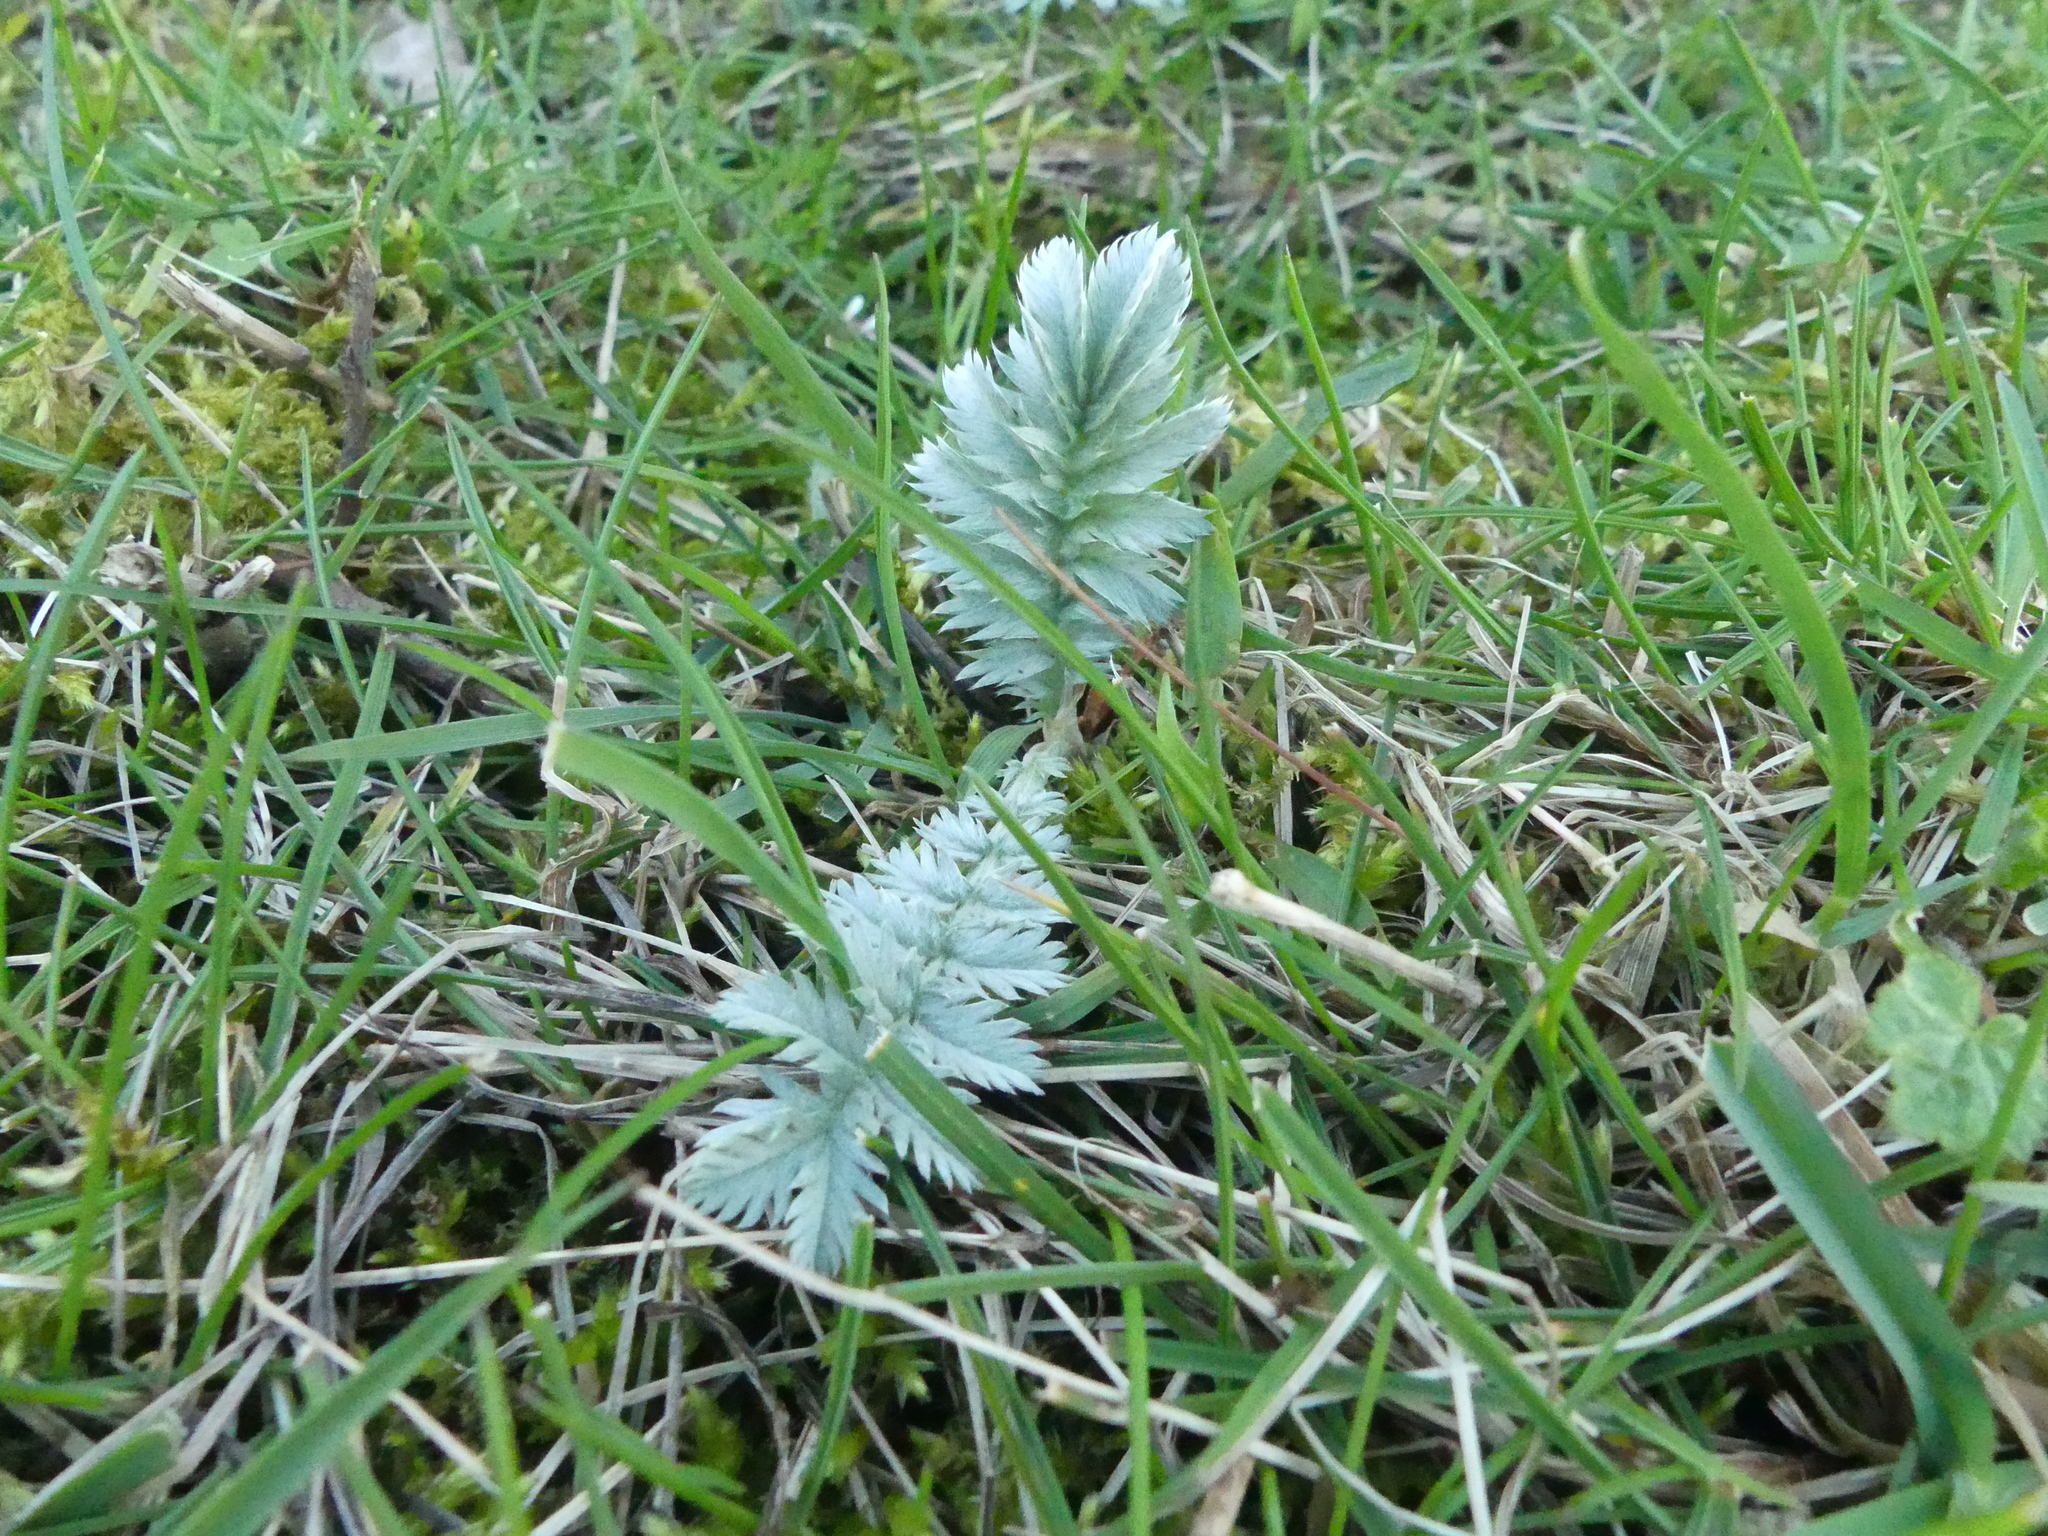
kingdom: Plantae
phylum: Tracheophyta
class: Magnoliopsida
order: Rosales
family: Rosaceae
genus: Argentina
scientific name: Argentina anserina
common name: Common silverweed
